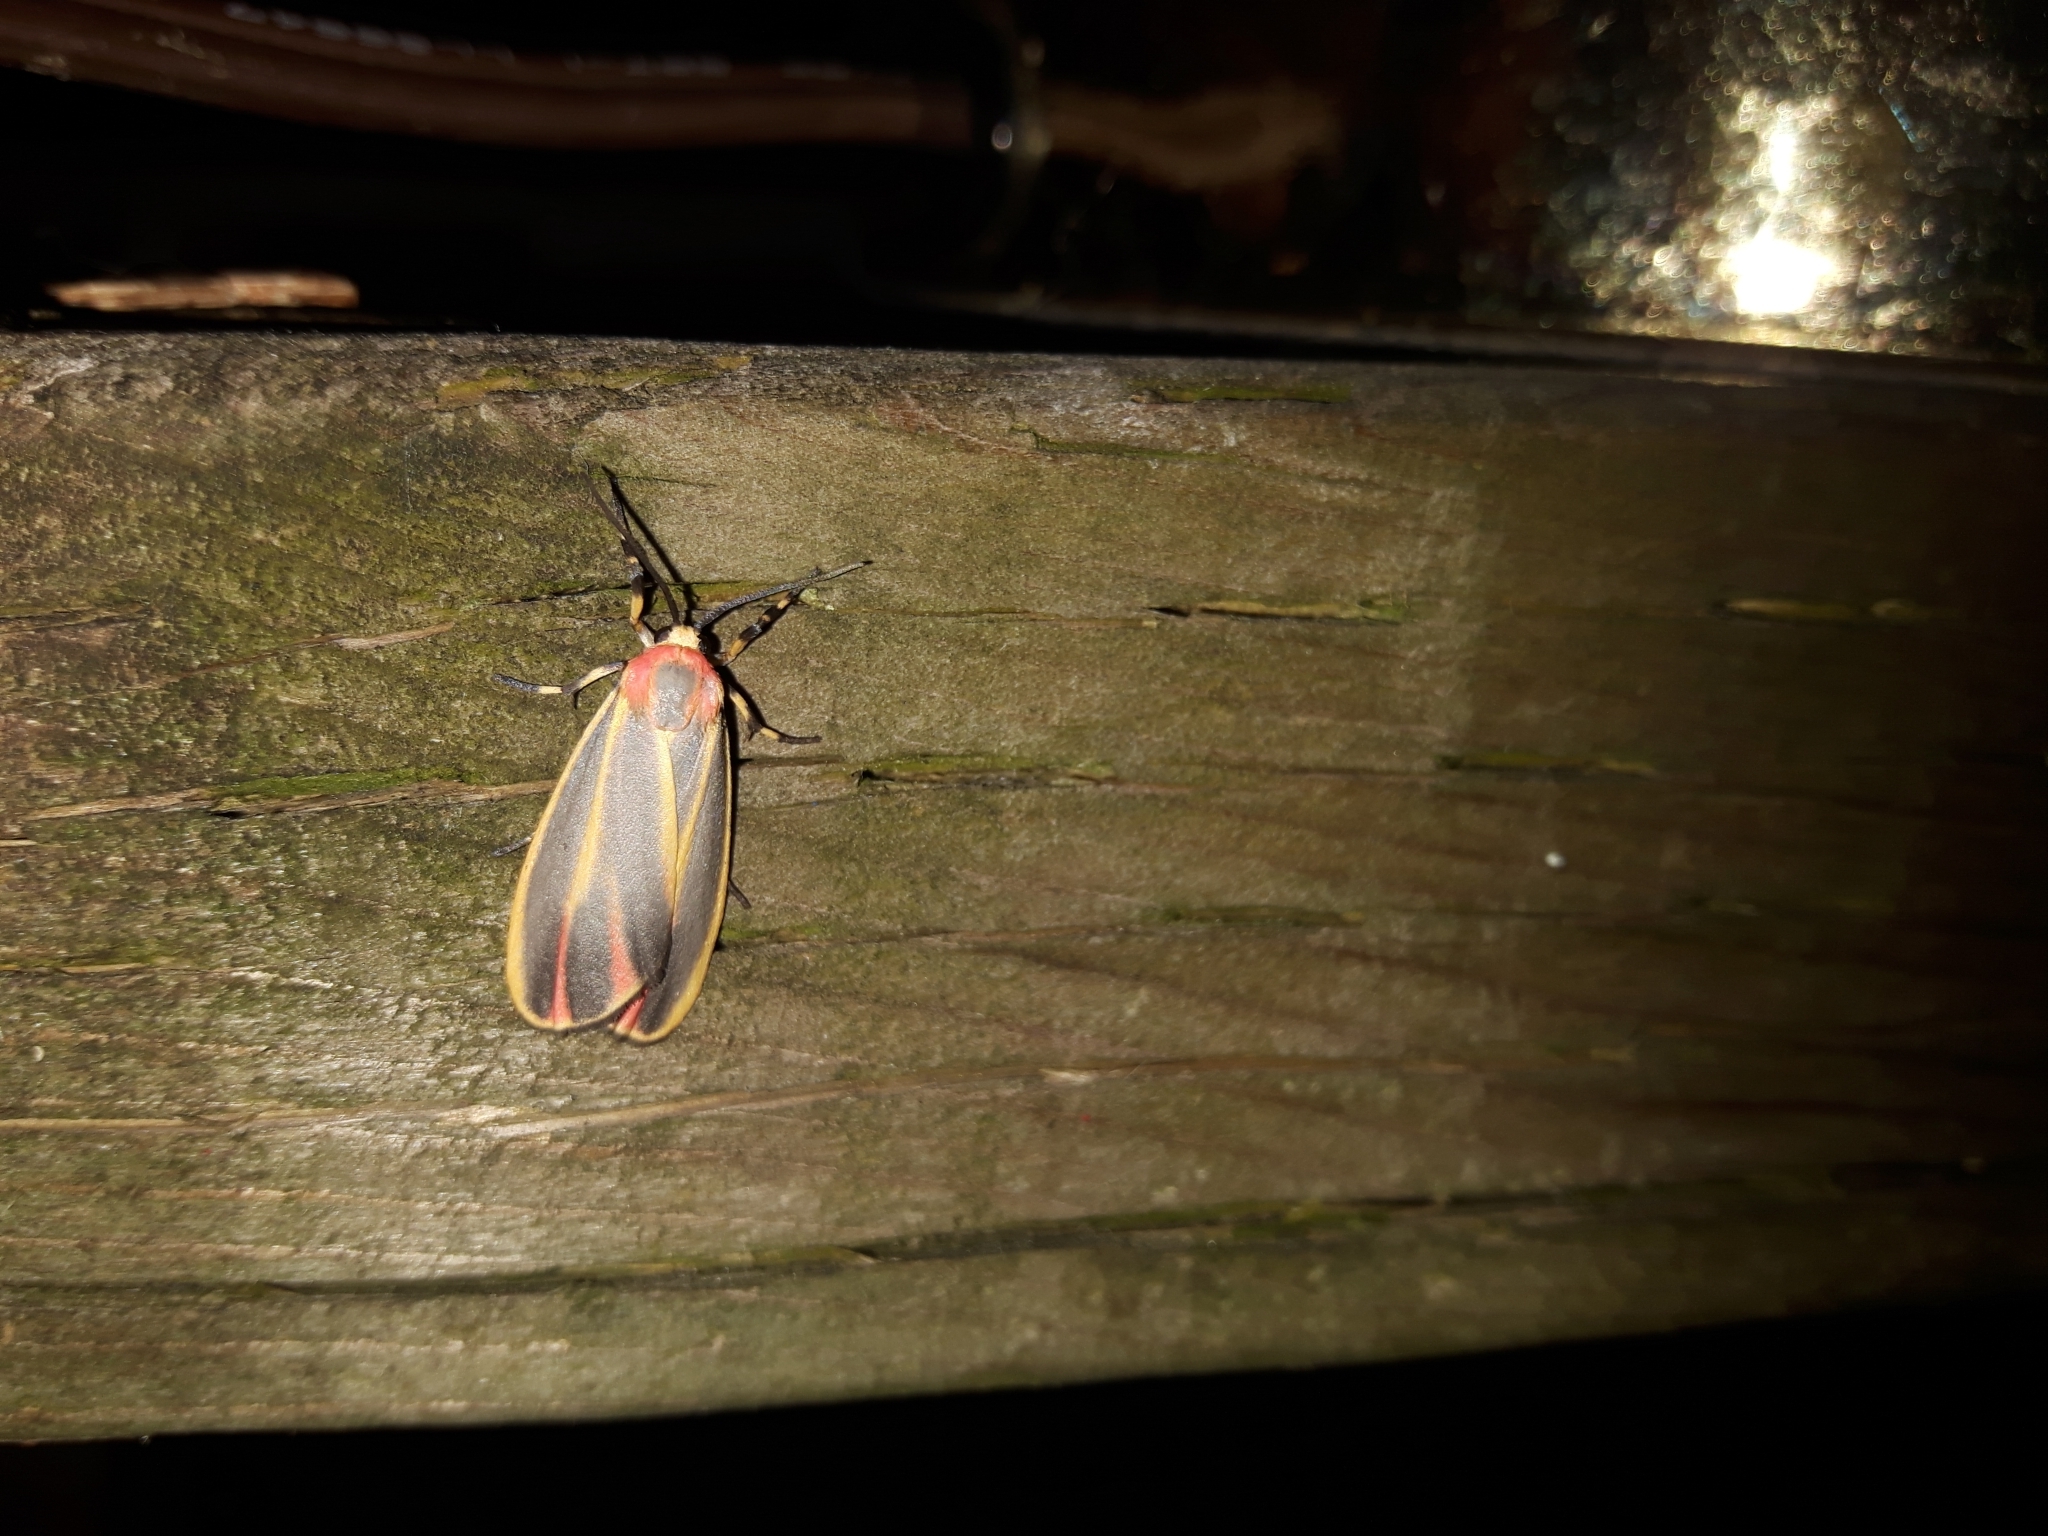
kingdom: Animalia
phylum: Arthropoda
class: Insecta
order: Lepidoptera
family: Erebidae
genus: Hypoprepia
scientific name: Hypoprepia fucosa
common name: Painted lichen moth
